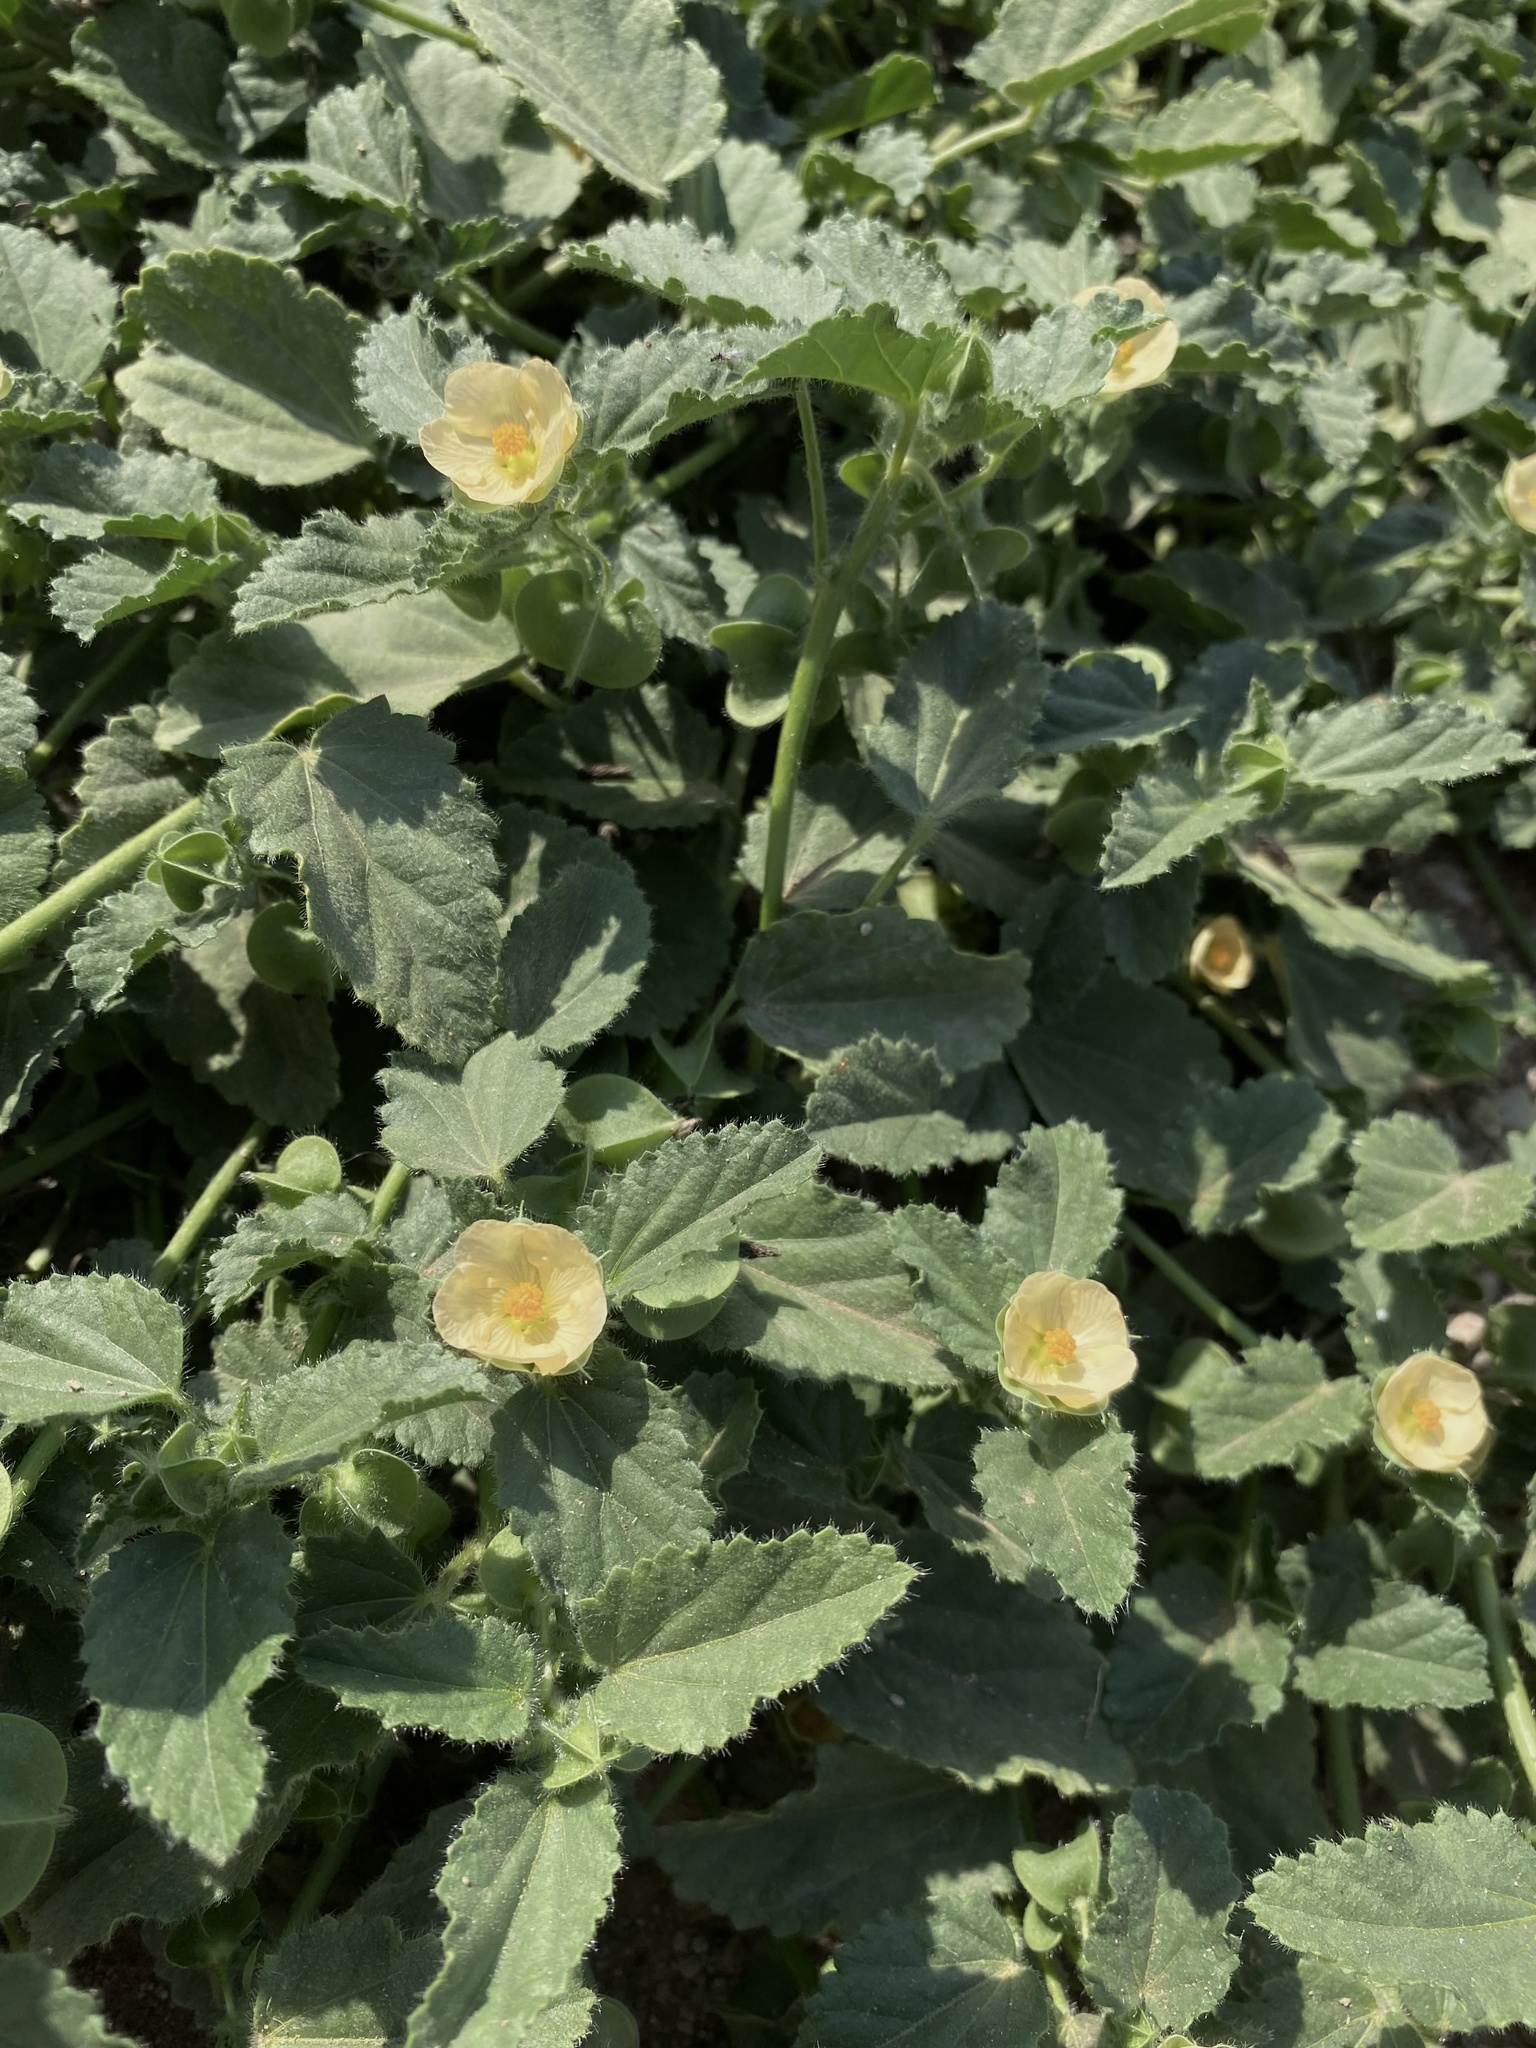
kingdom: Plantae
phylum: Tracheophyta
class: Magnoliopsida
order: Malvales
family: Malvaceae
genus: Rhynchosida
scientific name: Rhynchosida physocalyx
